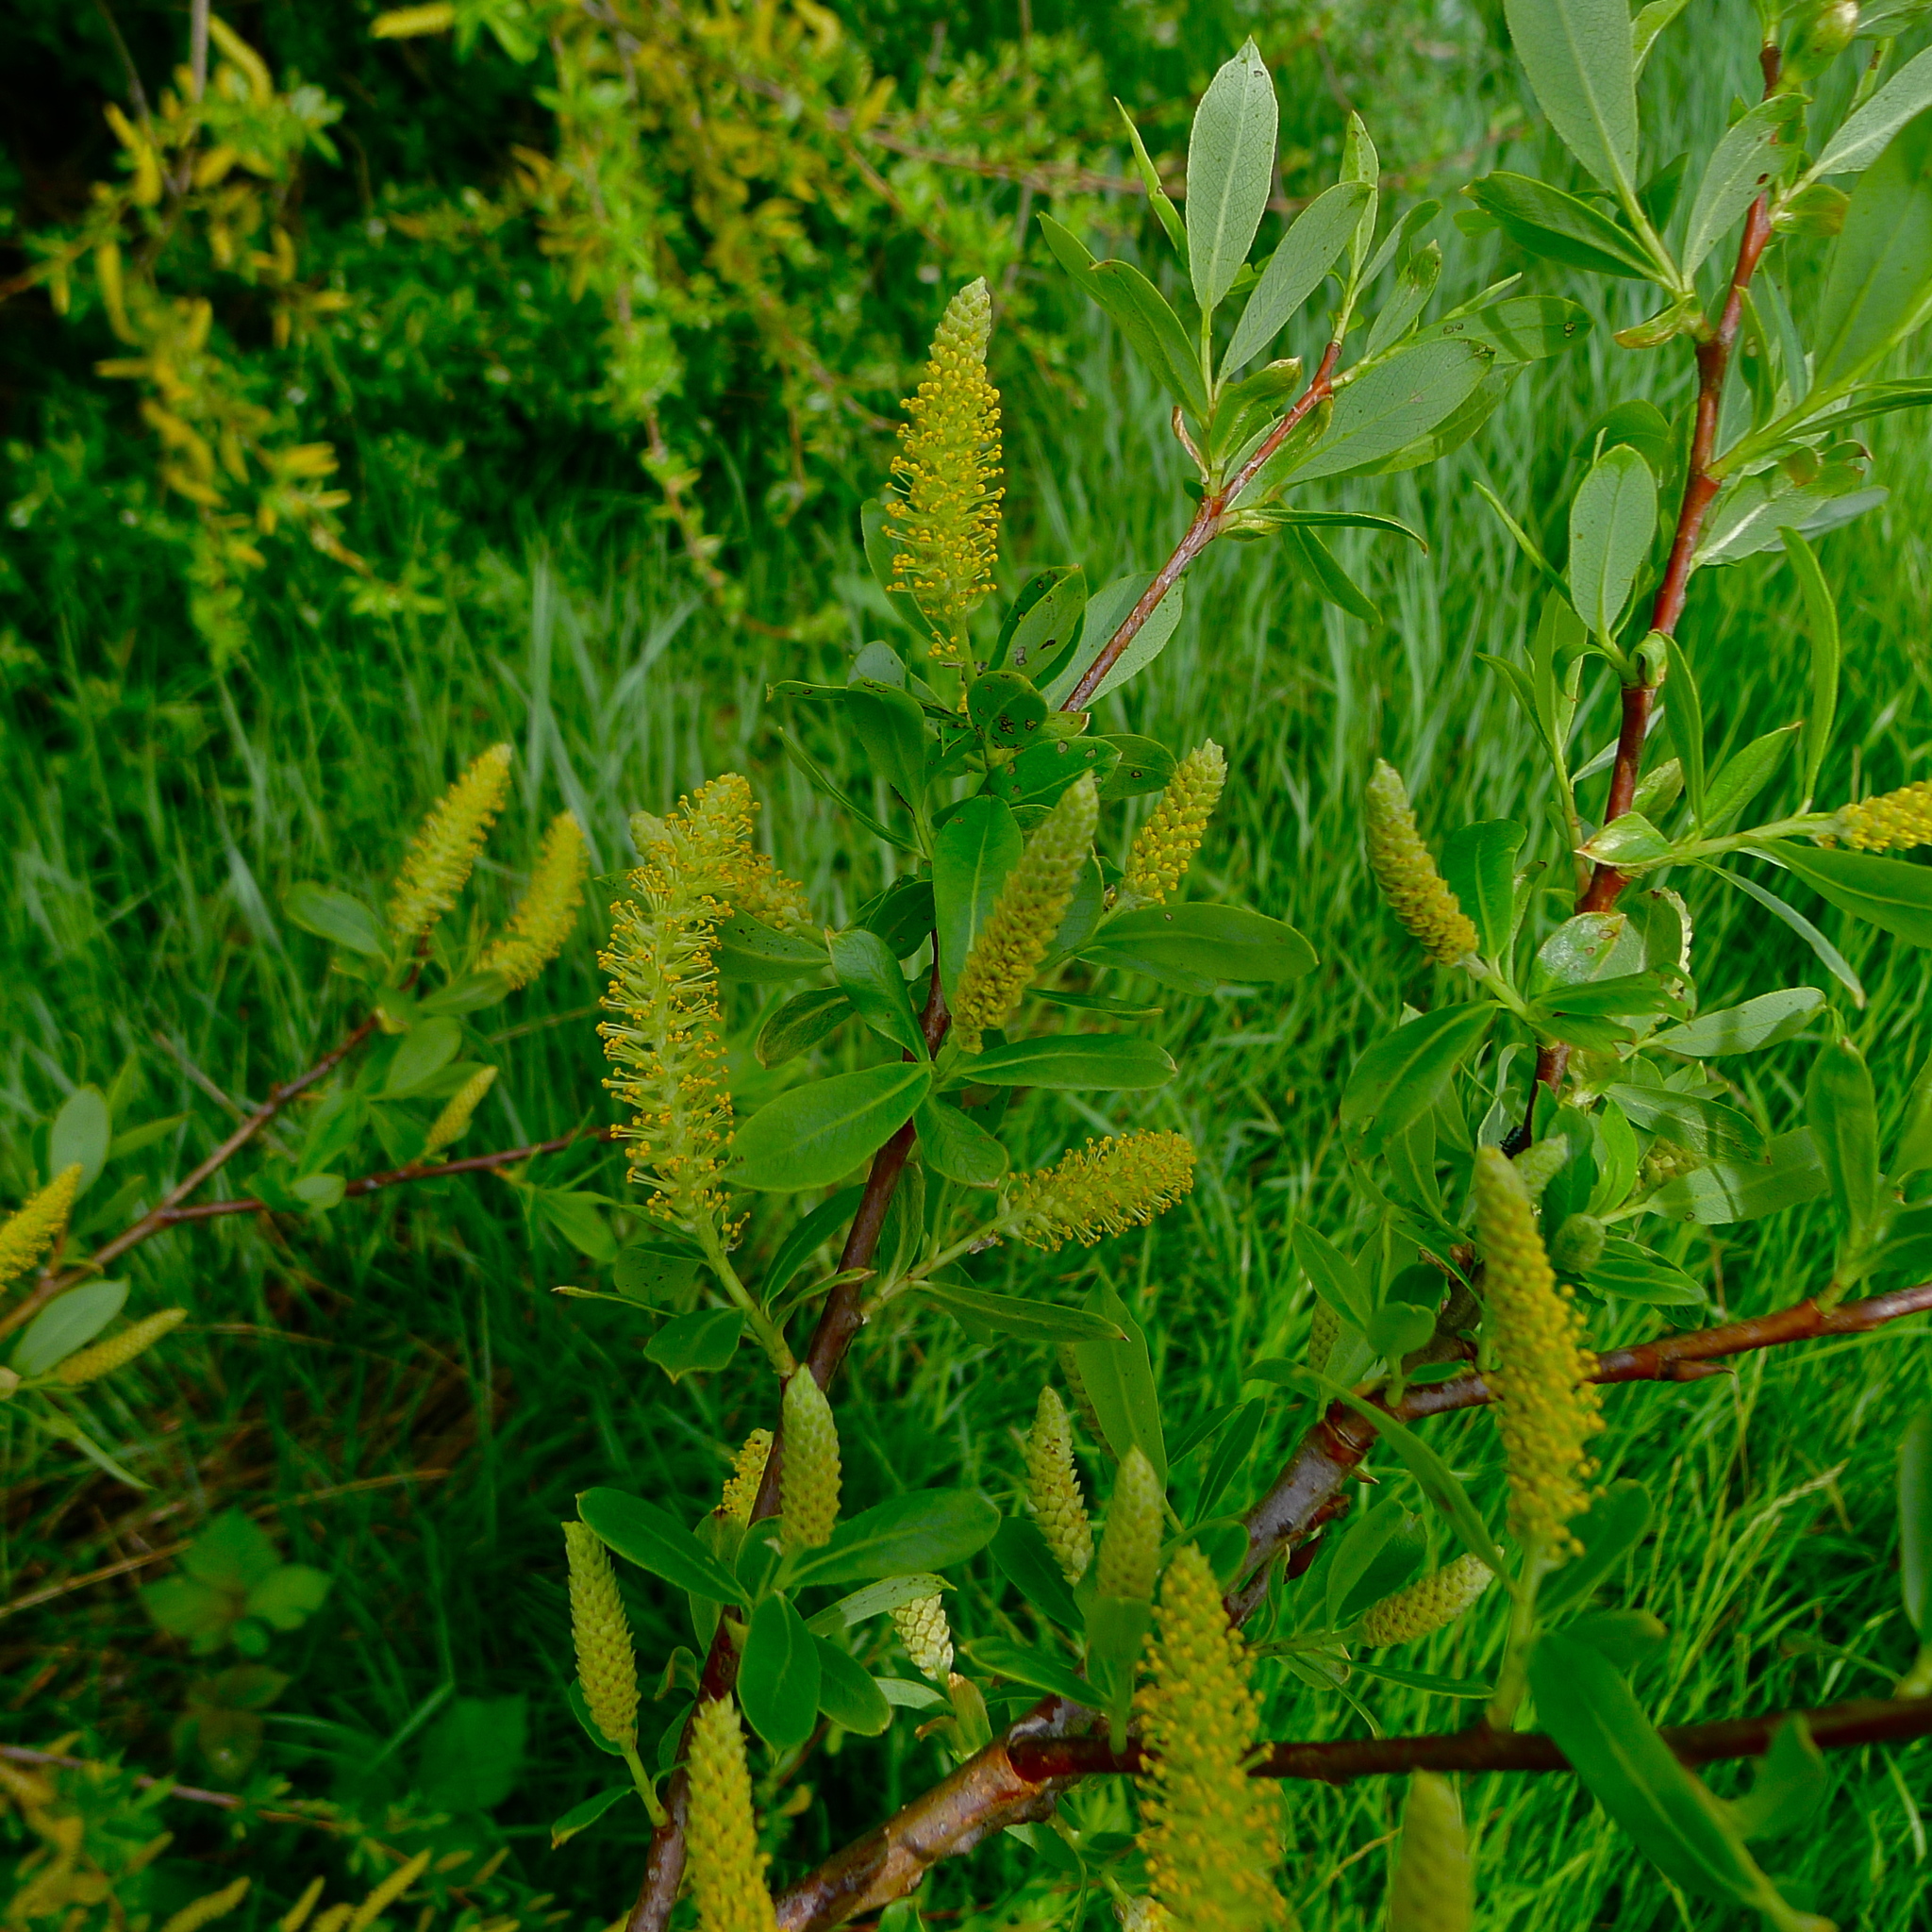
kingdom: Plantae
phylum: Tracheophyta
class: Magnoliopsida
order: Malpighiales
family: Salicaceae
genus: Salix
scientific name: Salix lucida
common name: Shining willow
